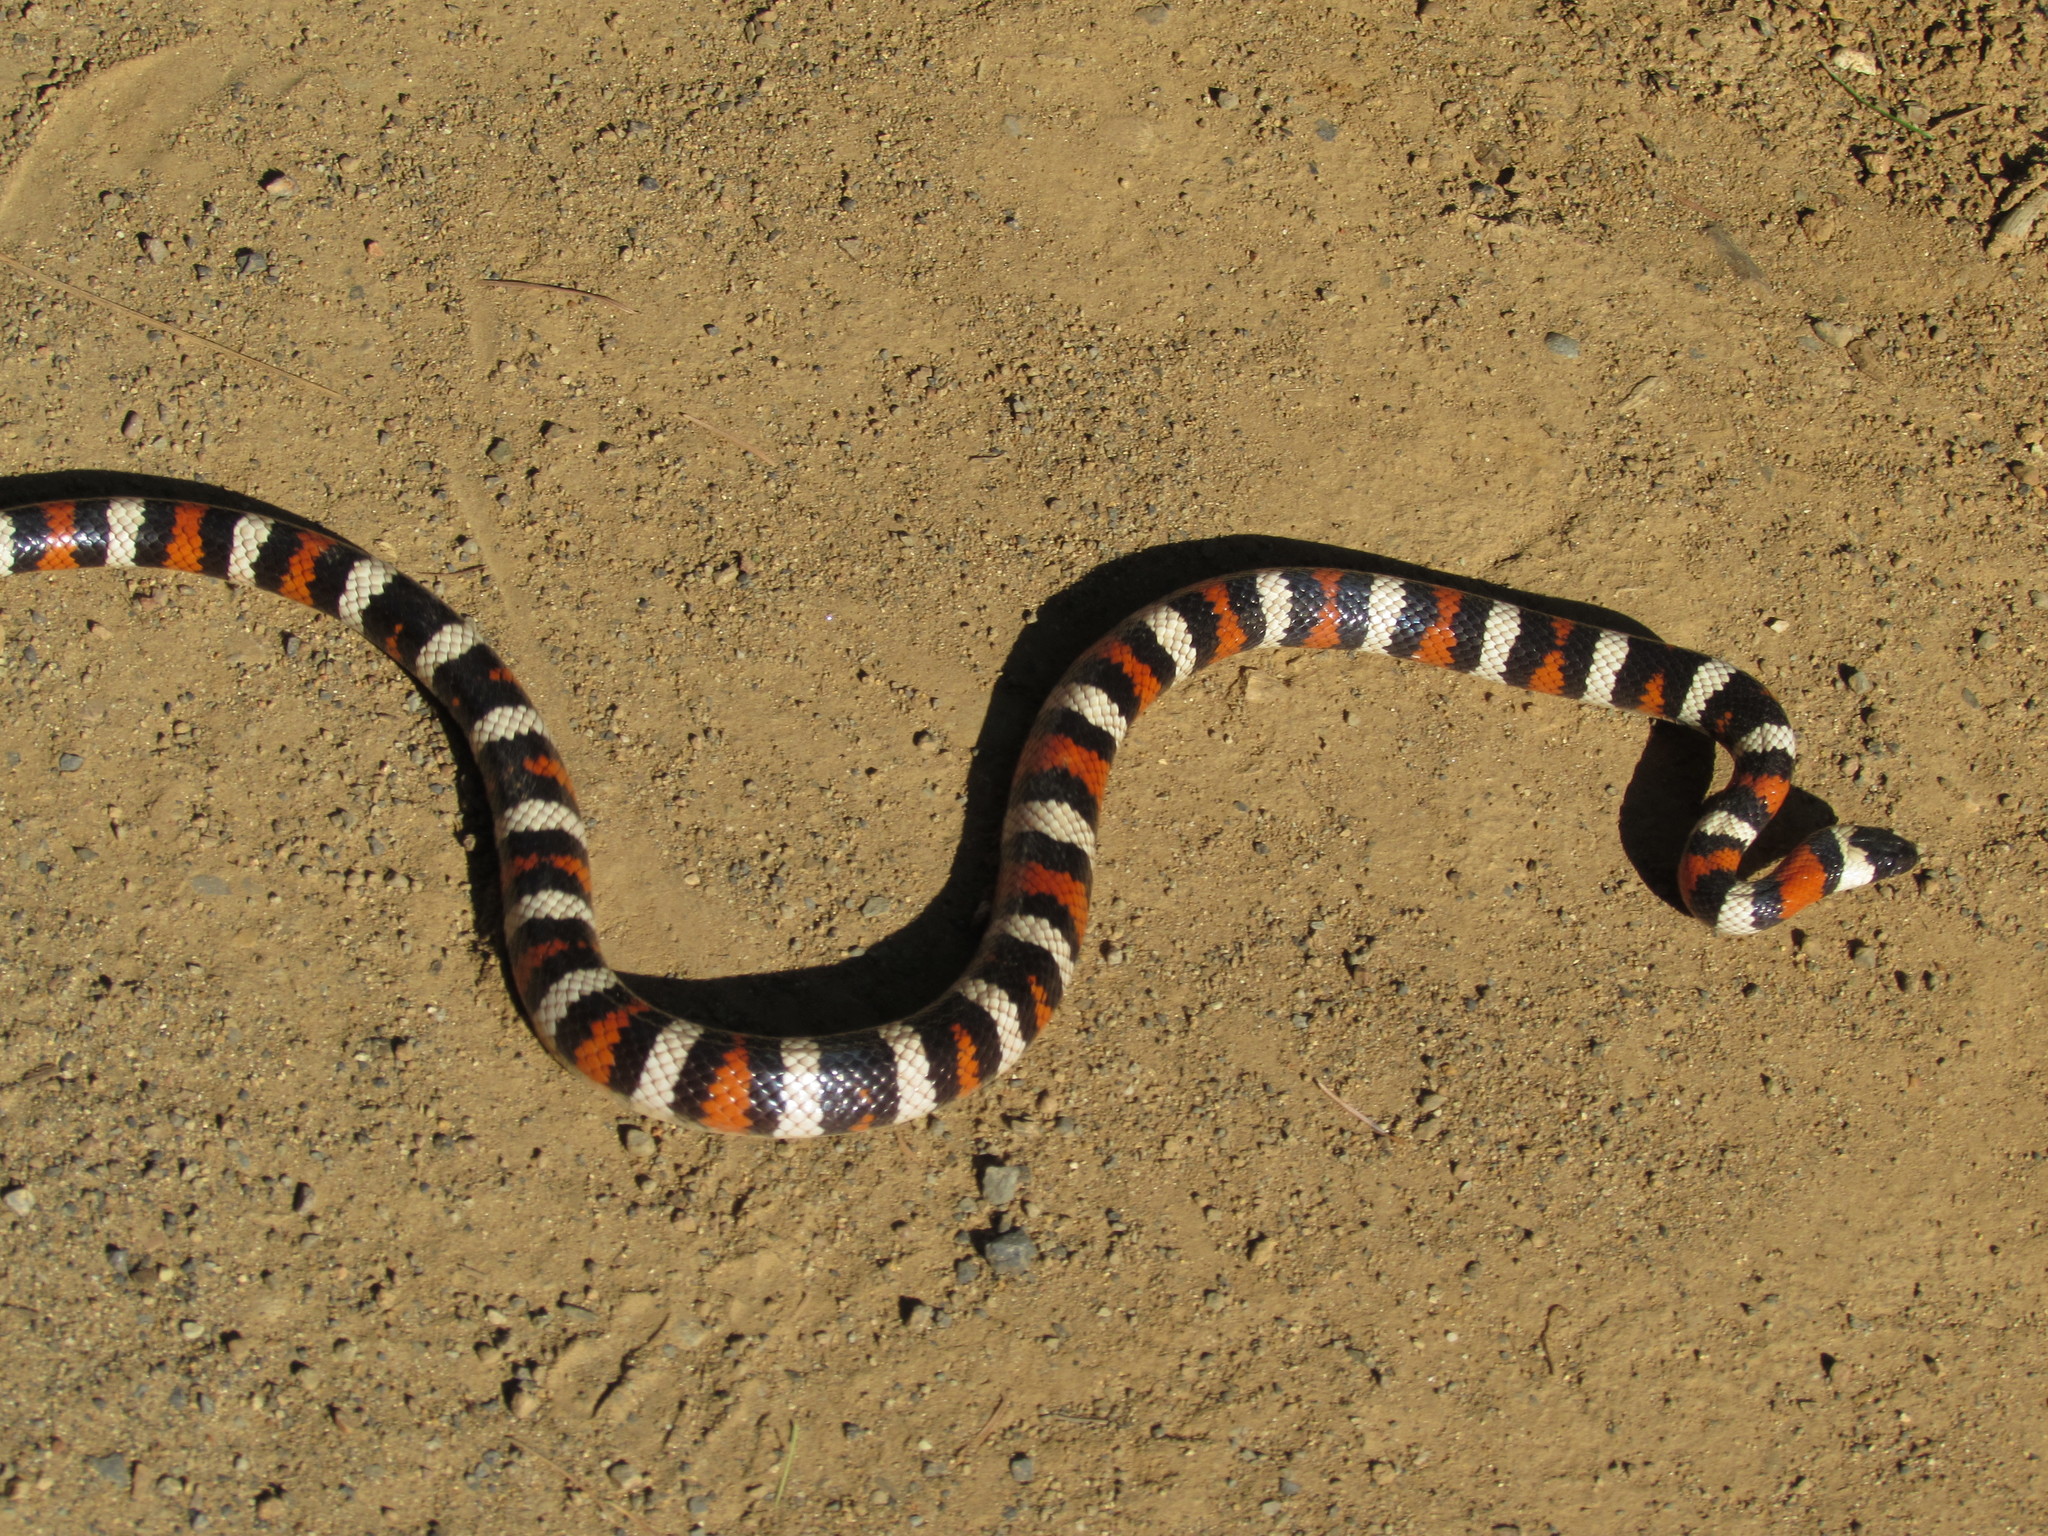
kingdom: Animalia
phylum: Chordata
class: Squamata
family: Colubridae
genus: Lampropeltis
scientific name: Lampropeltis zonata
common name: California mountain kingsnake
